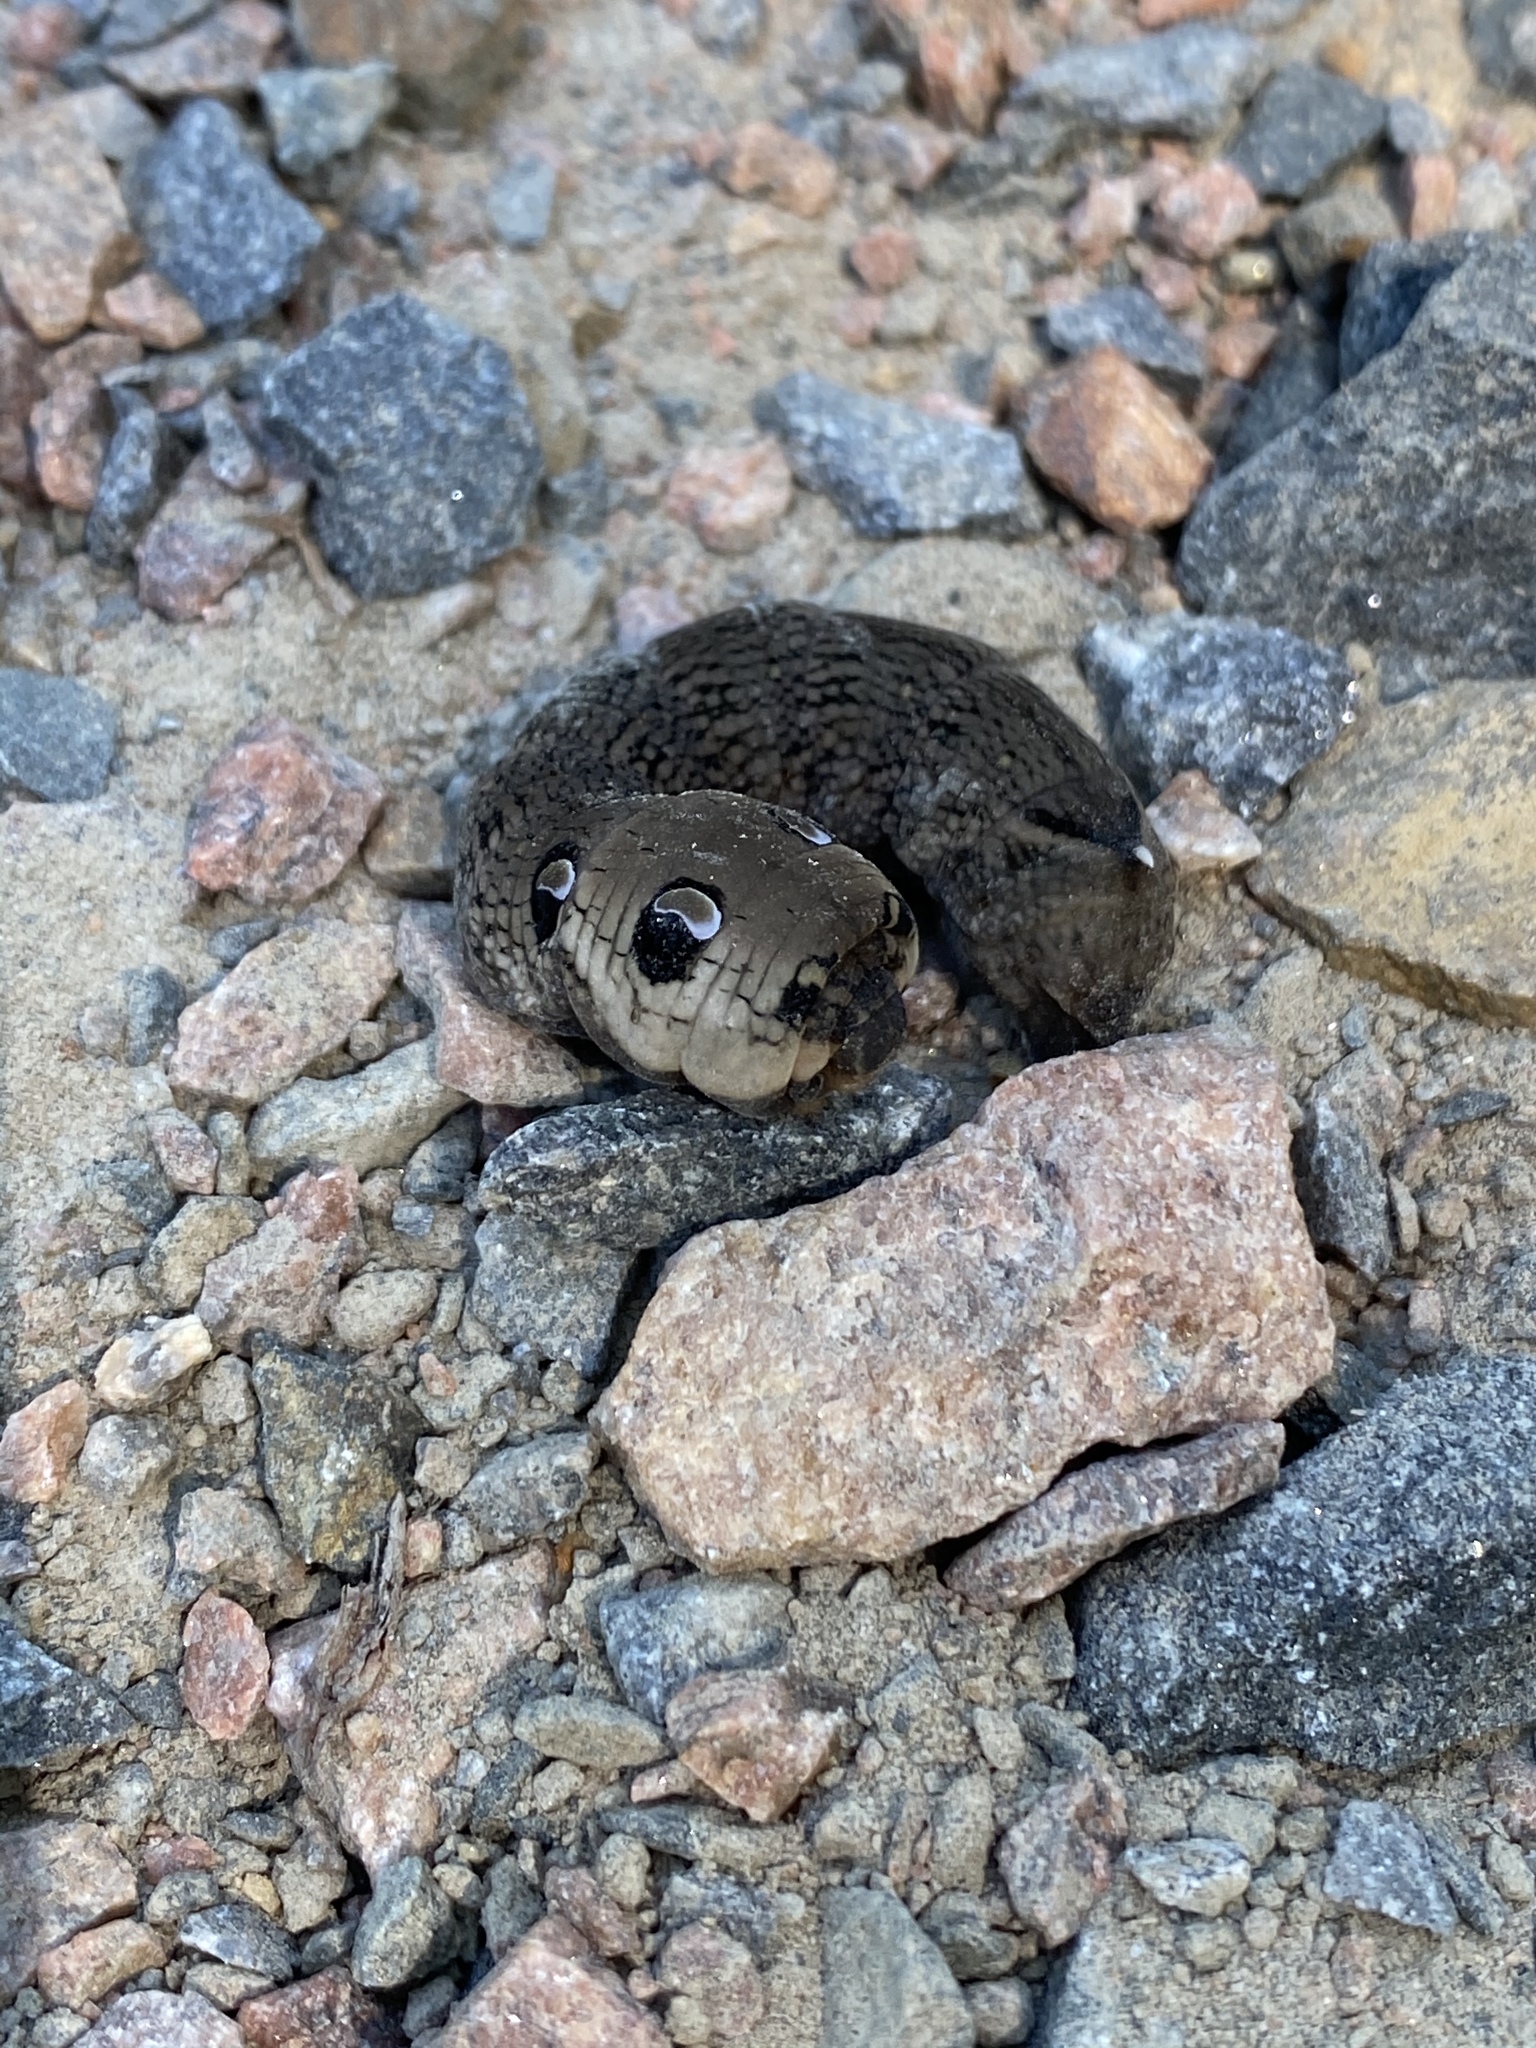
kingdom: Animalia
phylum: Arthropoda
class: Insecta
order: Lepidoptera
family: Sphingidae
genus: Deilephila
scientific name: Deilephila elpenor
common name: Elephant hawk-moth
